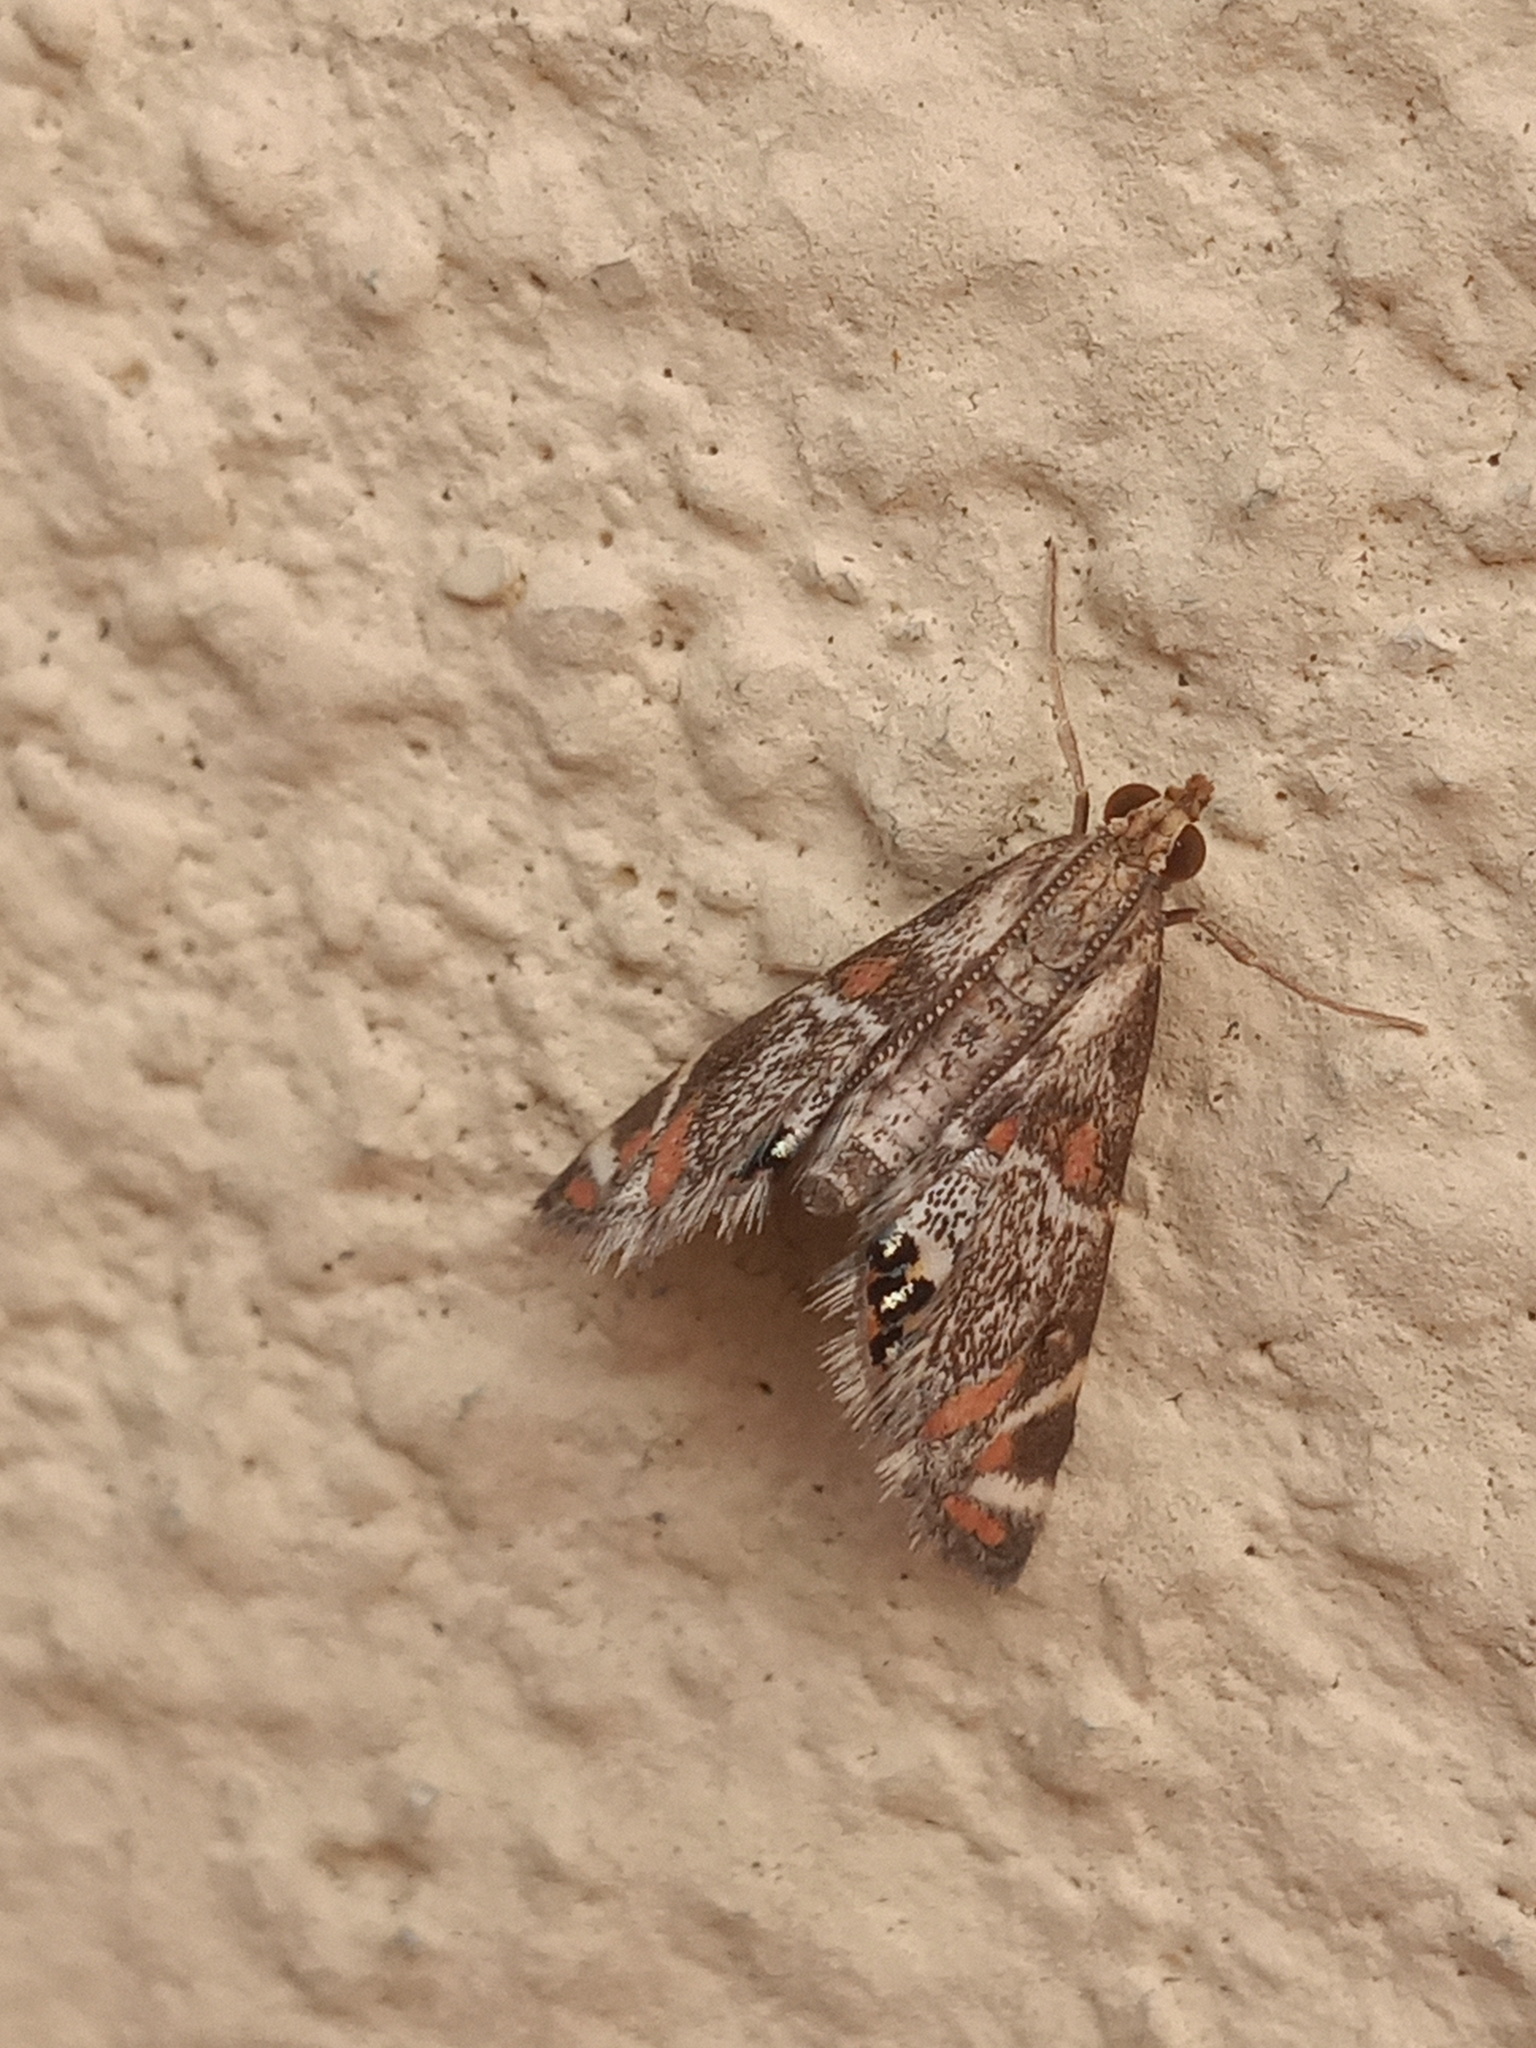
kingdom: Animalia
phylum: Arthropoda
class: Insecta
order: Lepidoptera
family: Crambidae
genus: Petrophila
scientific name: Petrophila jaliscalis
